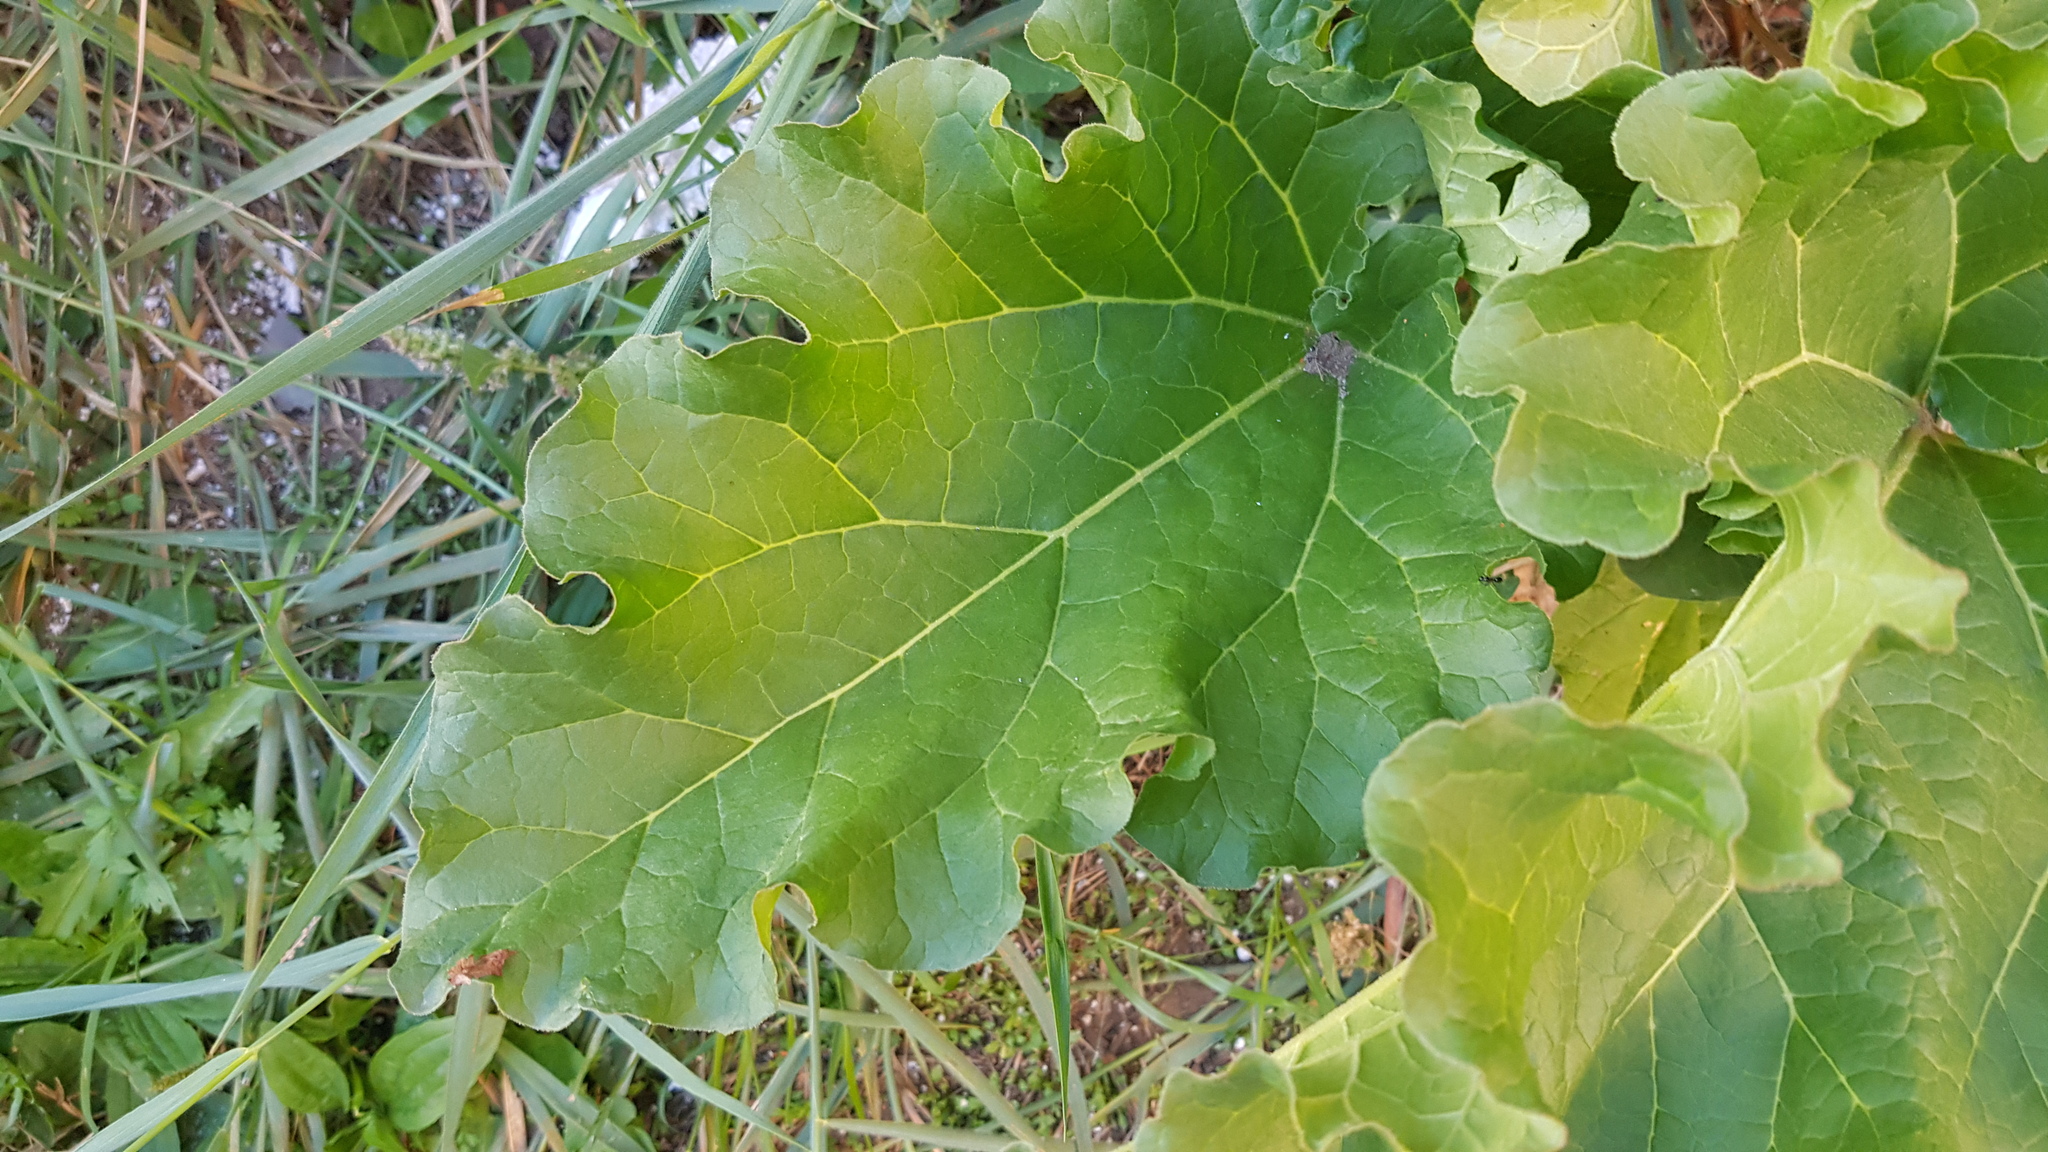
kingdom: Plantae
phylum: Tracheophyta
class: Magnoliopsida
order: Caryophyllales
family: Polygonaceae
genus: Rheum
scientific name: Rheum rhabarbarum
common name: Garden rhubarb
